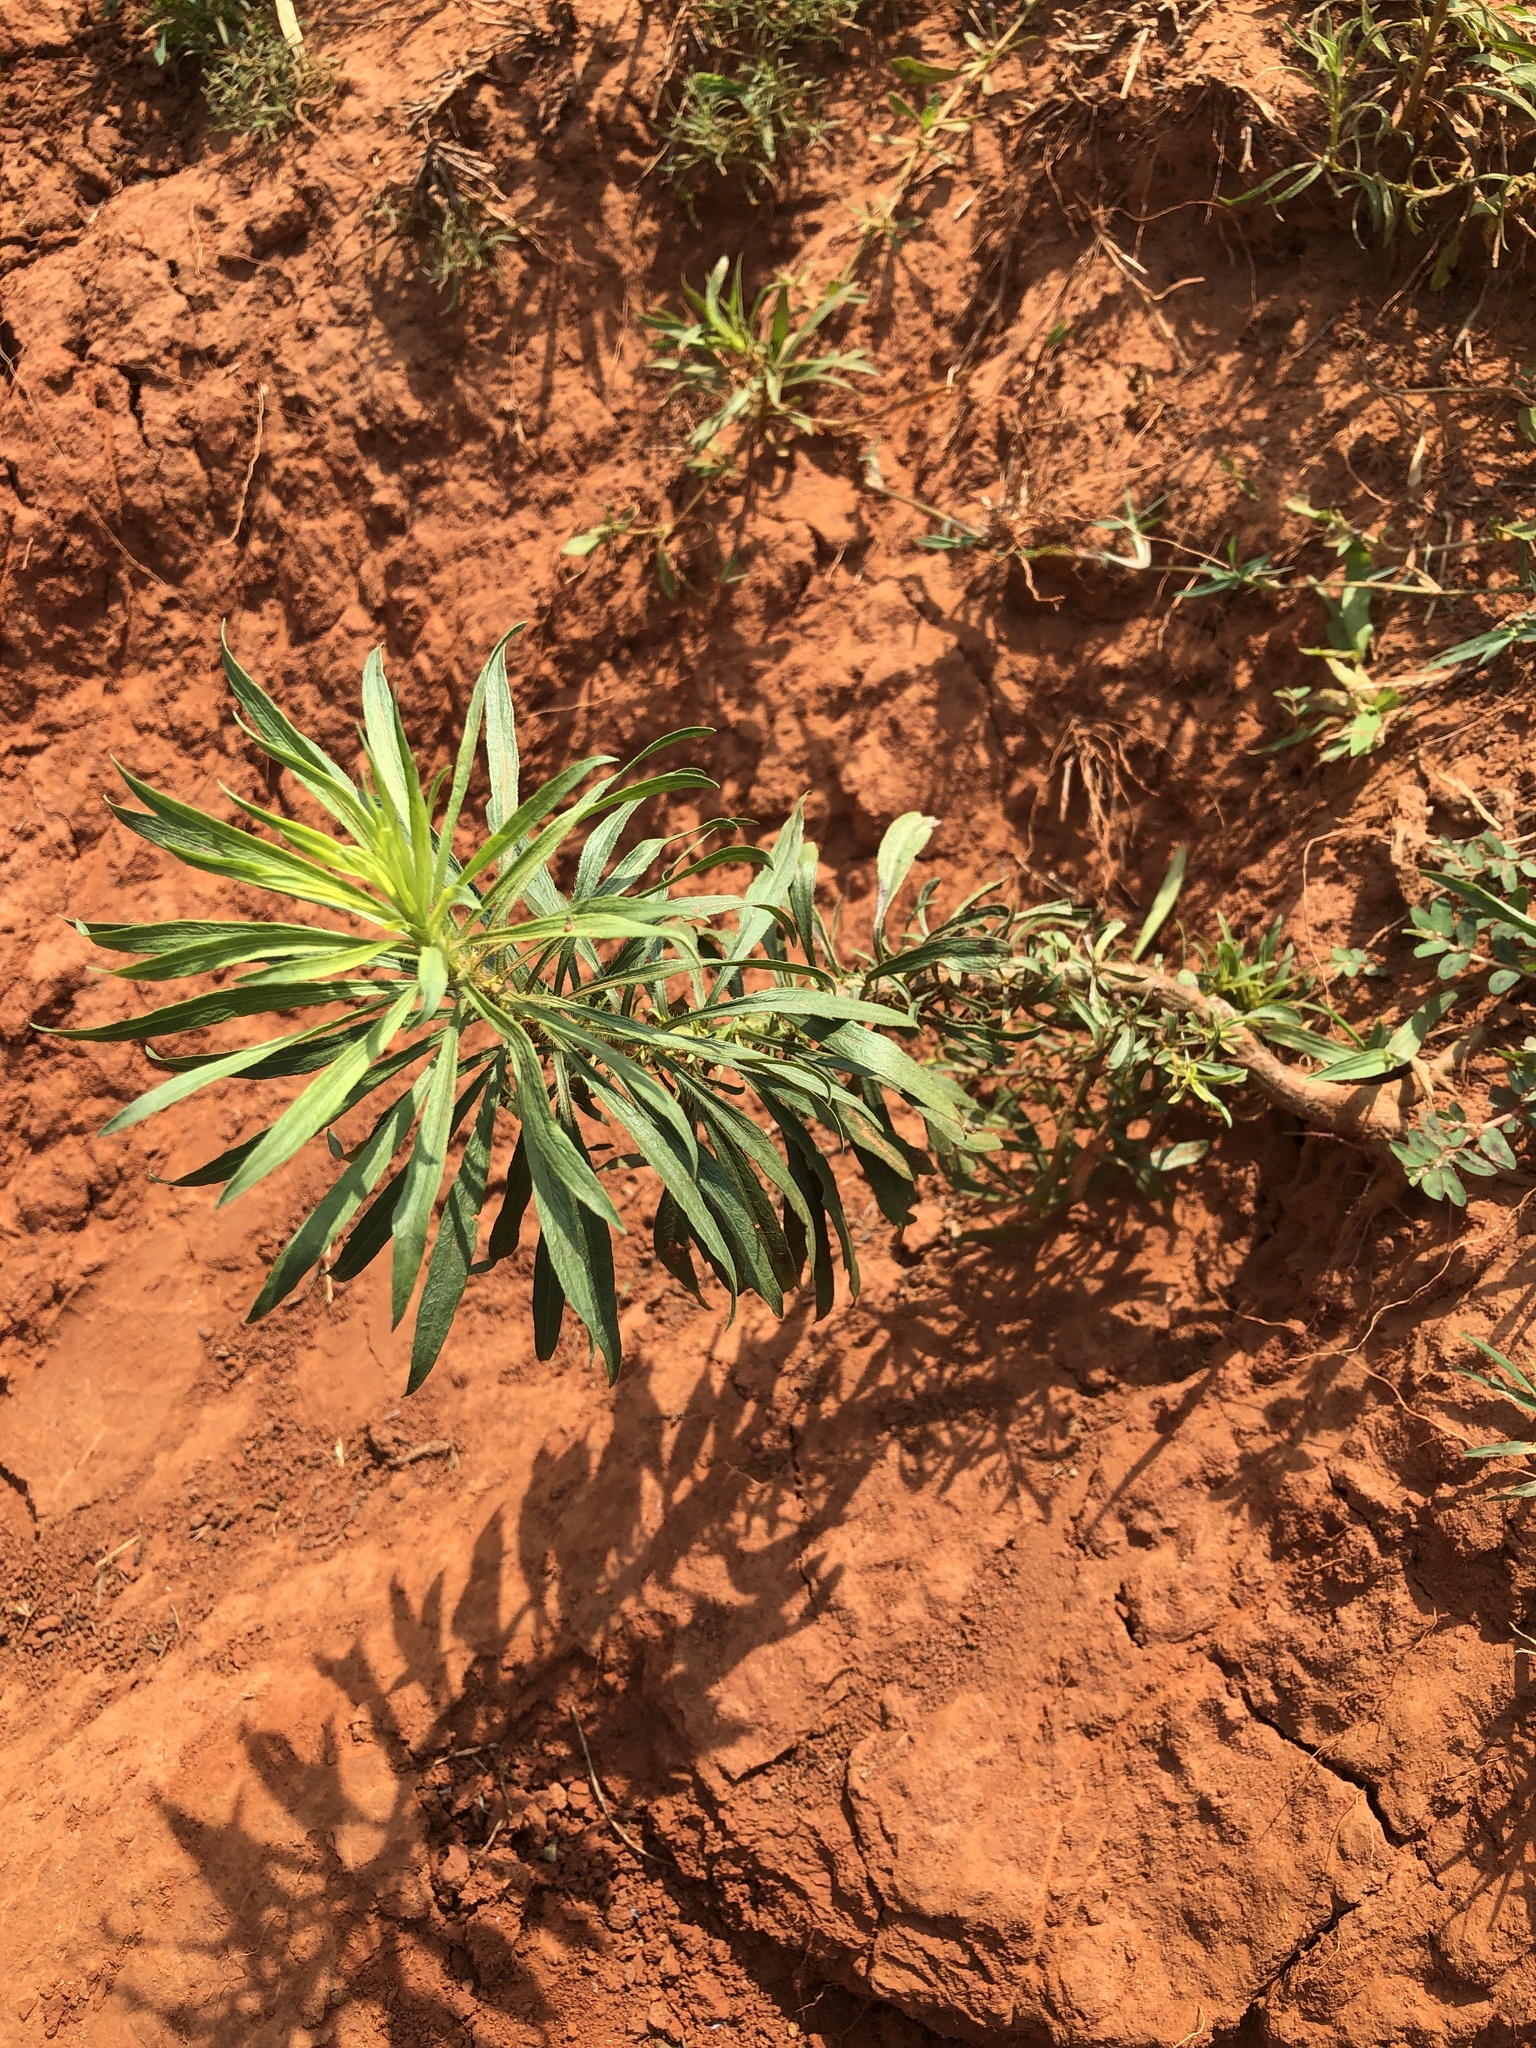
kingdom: Plantae
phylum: Tracheophyta
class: Magnoliopsida
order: Asterales
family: Asteraceae
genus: Erigeron
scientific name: Erigeron canadensis
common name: Canadian fleabane
